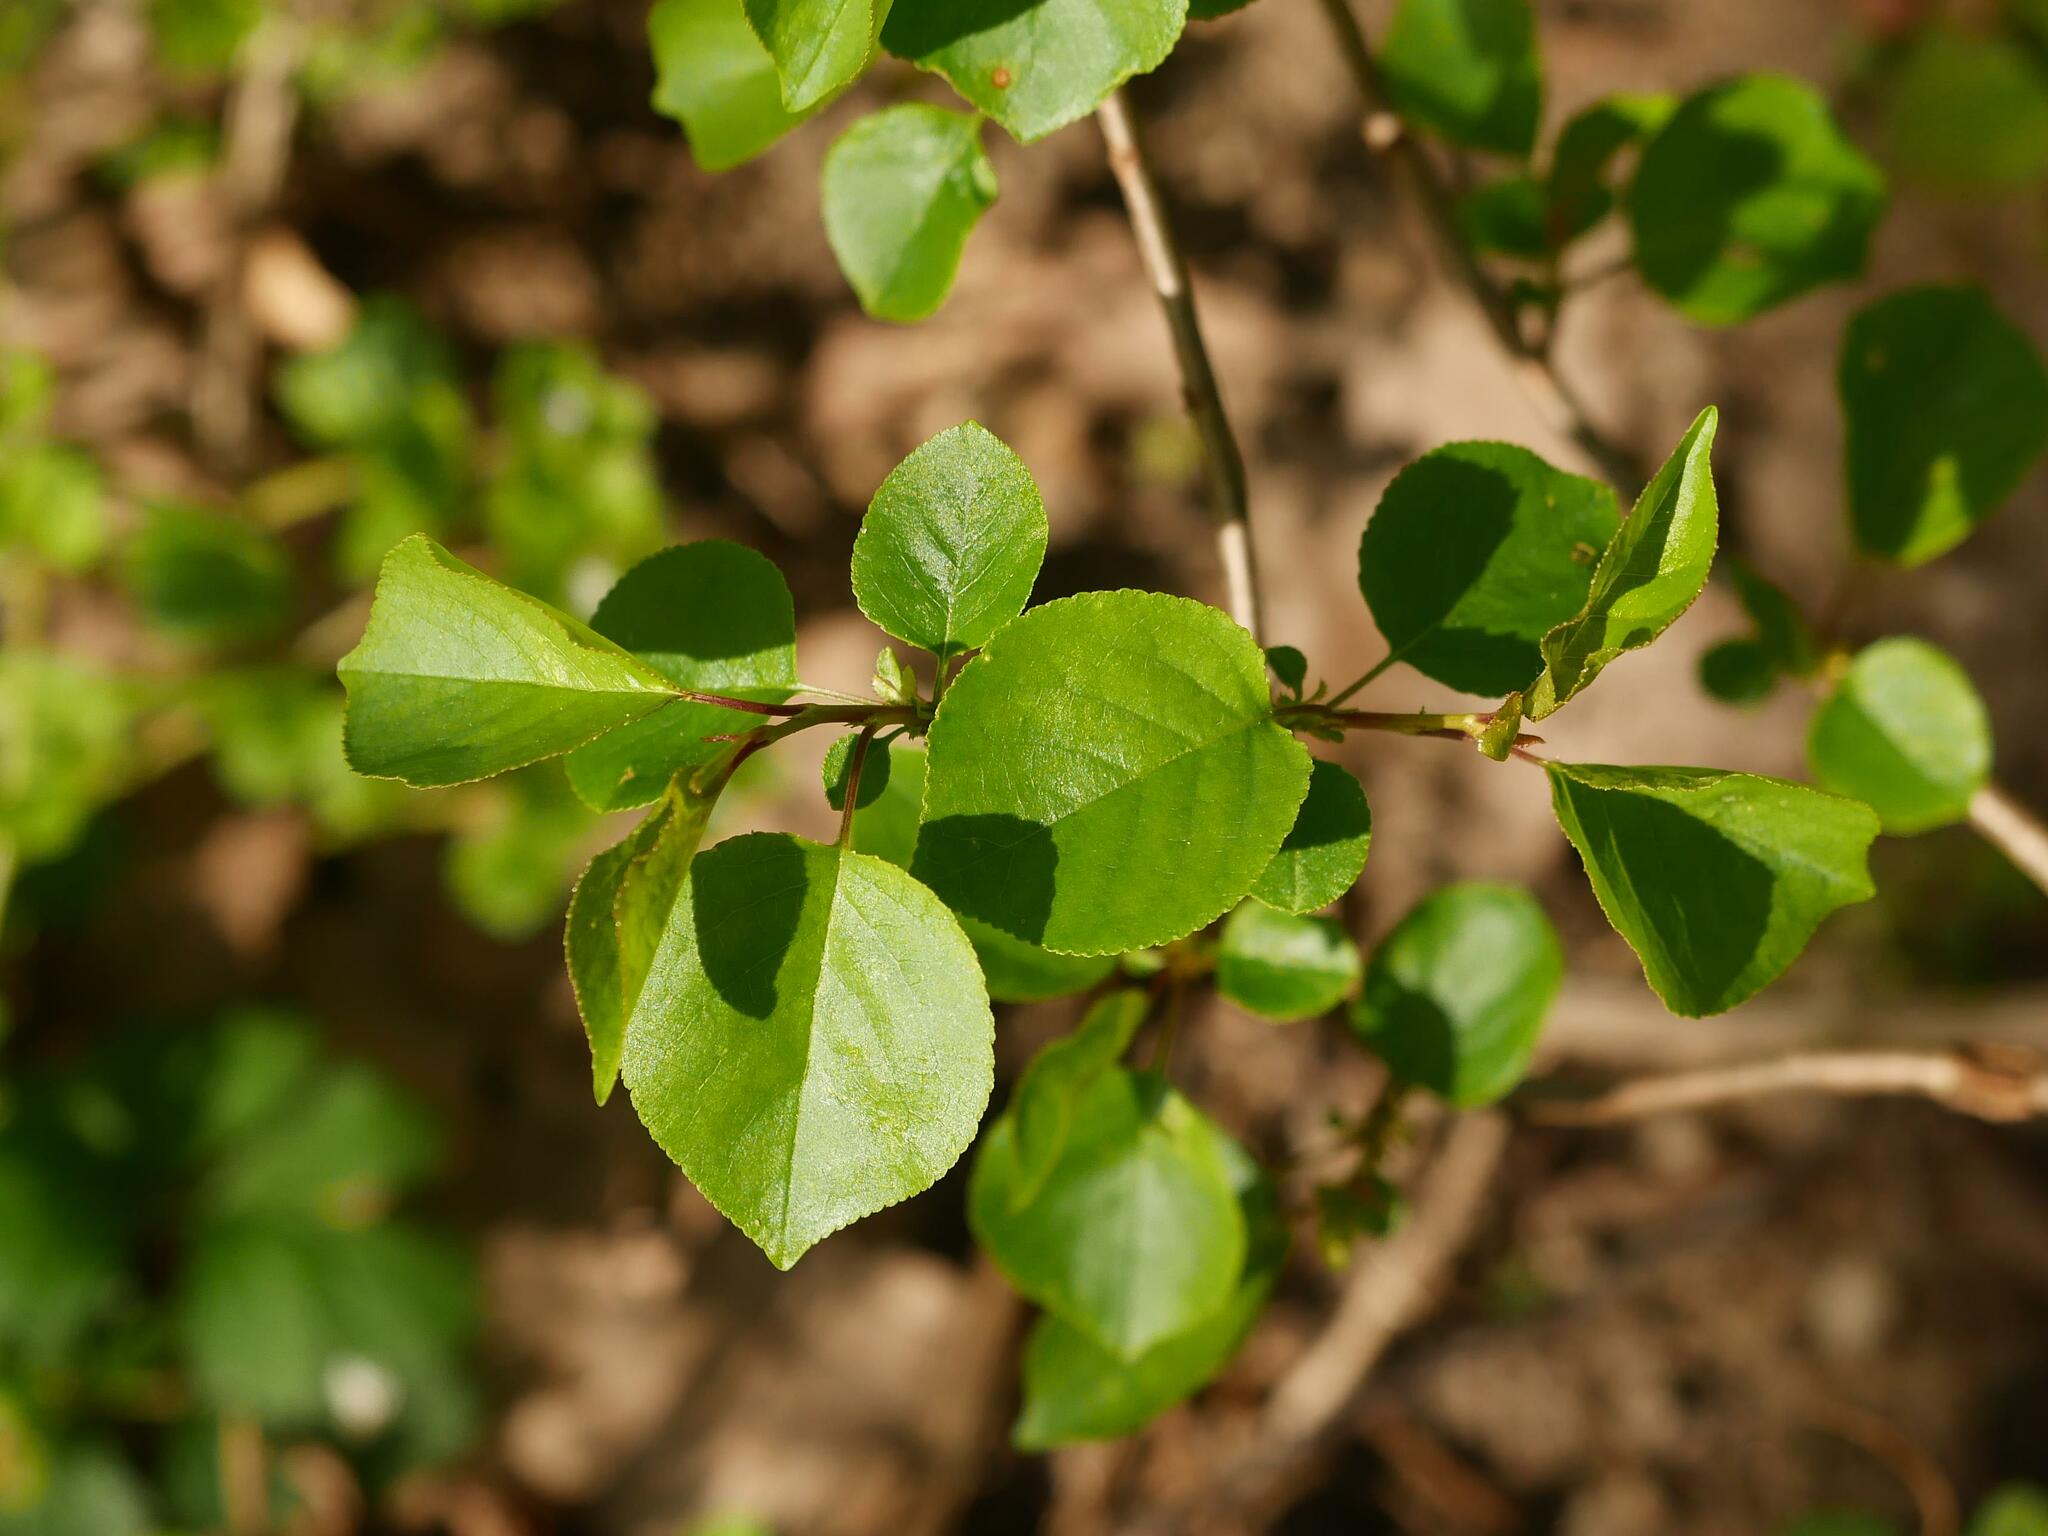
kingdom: Plantae
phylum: Tracheophyta
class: Magnoliopsida
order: Rosales
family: Rosaceae
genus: Prunus
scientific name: Prunus mahaleb
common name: Mahaleb cherry
